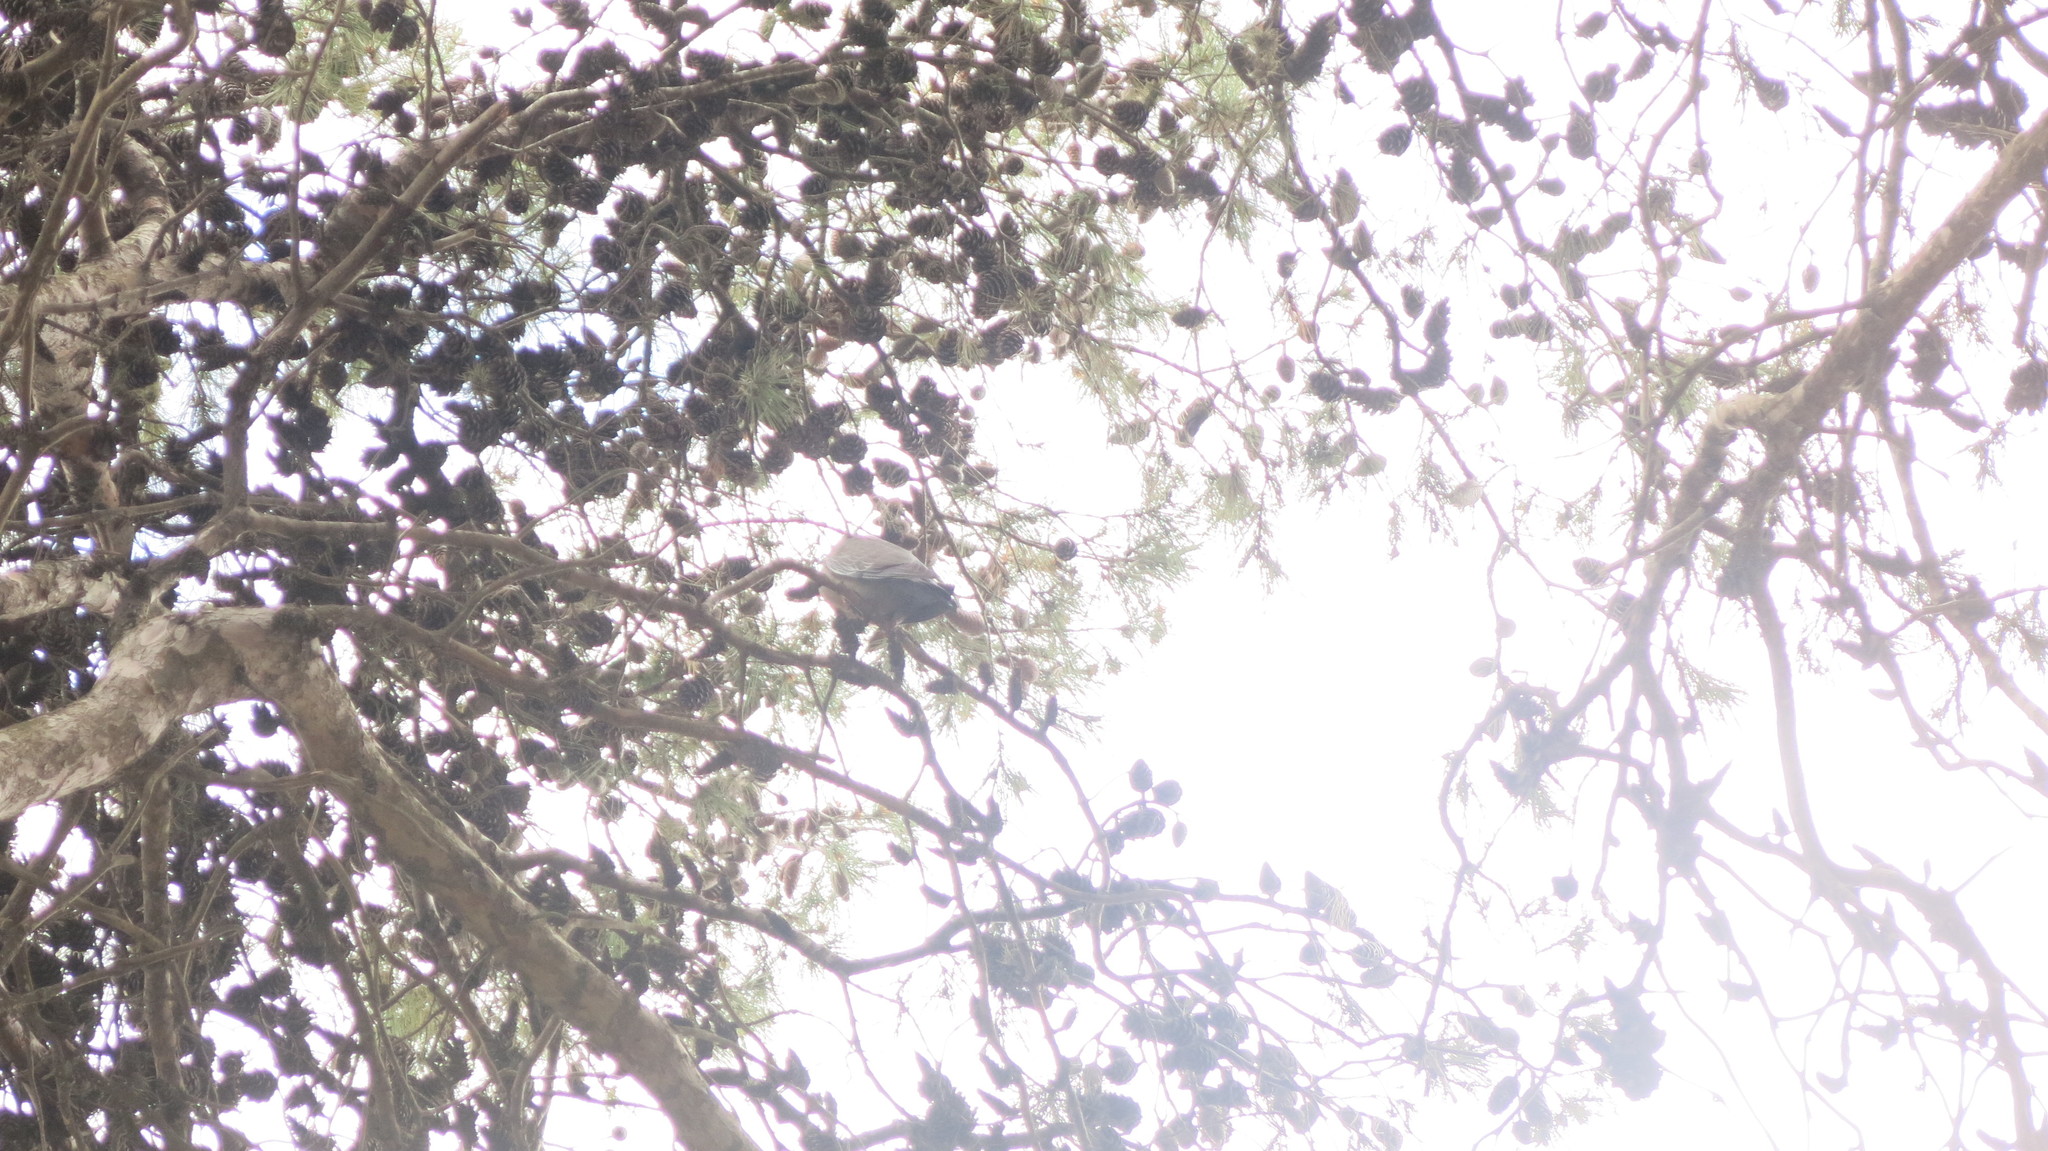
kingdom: Animalia
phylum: Chordata
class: Aves
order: Columbiformes
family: Columbidae
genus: Patagioenas
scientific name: Patagioenas picazuro
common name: Picazuro pigeon
